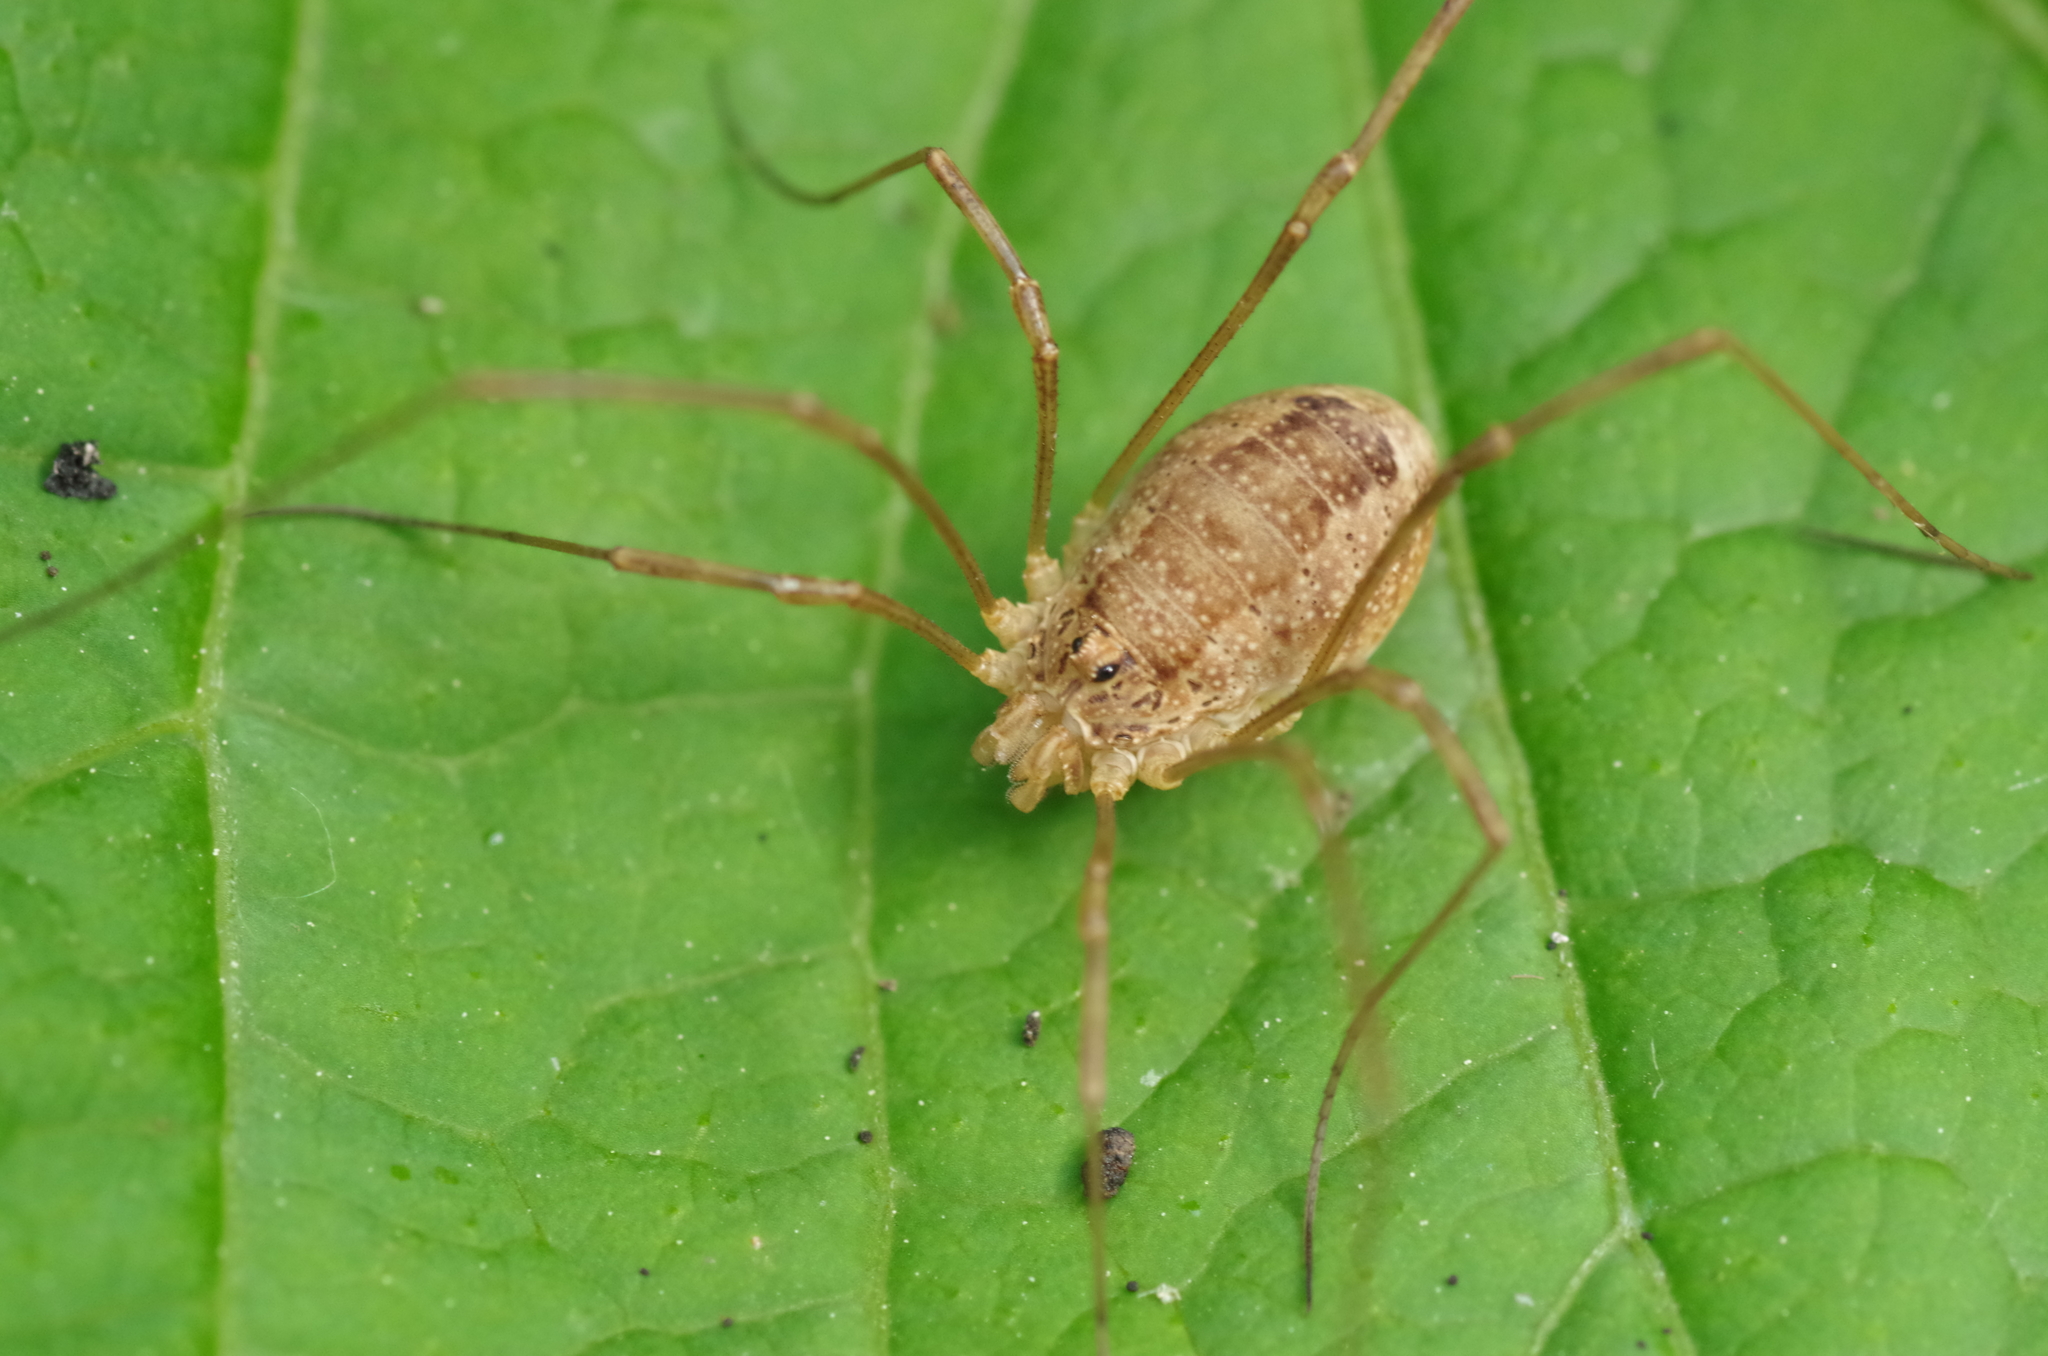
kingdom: Animalia
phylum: Arthropoda
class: Arachnida
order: Opiliones
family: Phalangiidae
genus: Rilaena
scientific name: Rilaena triangularis
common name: Spring harvestman
